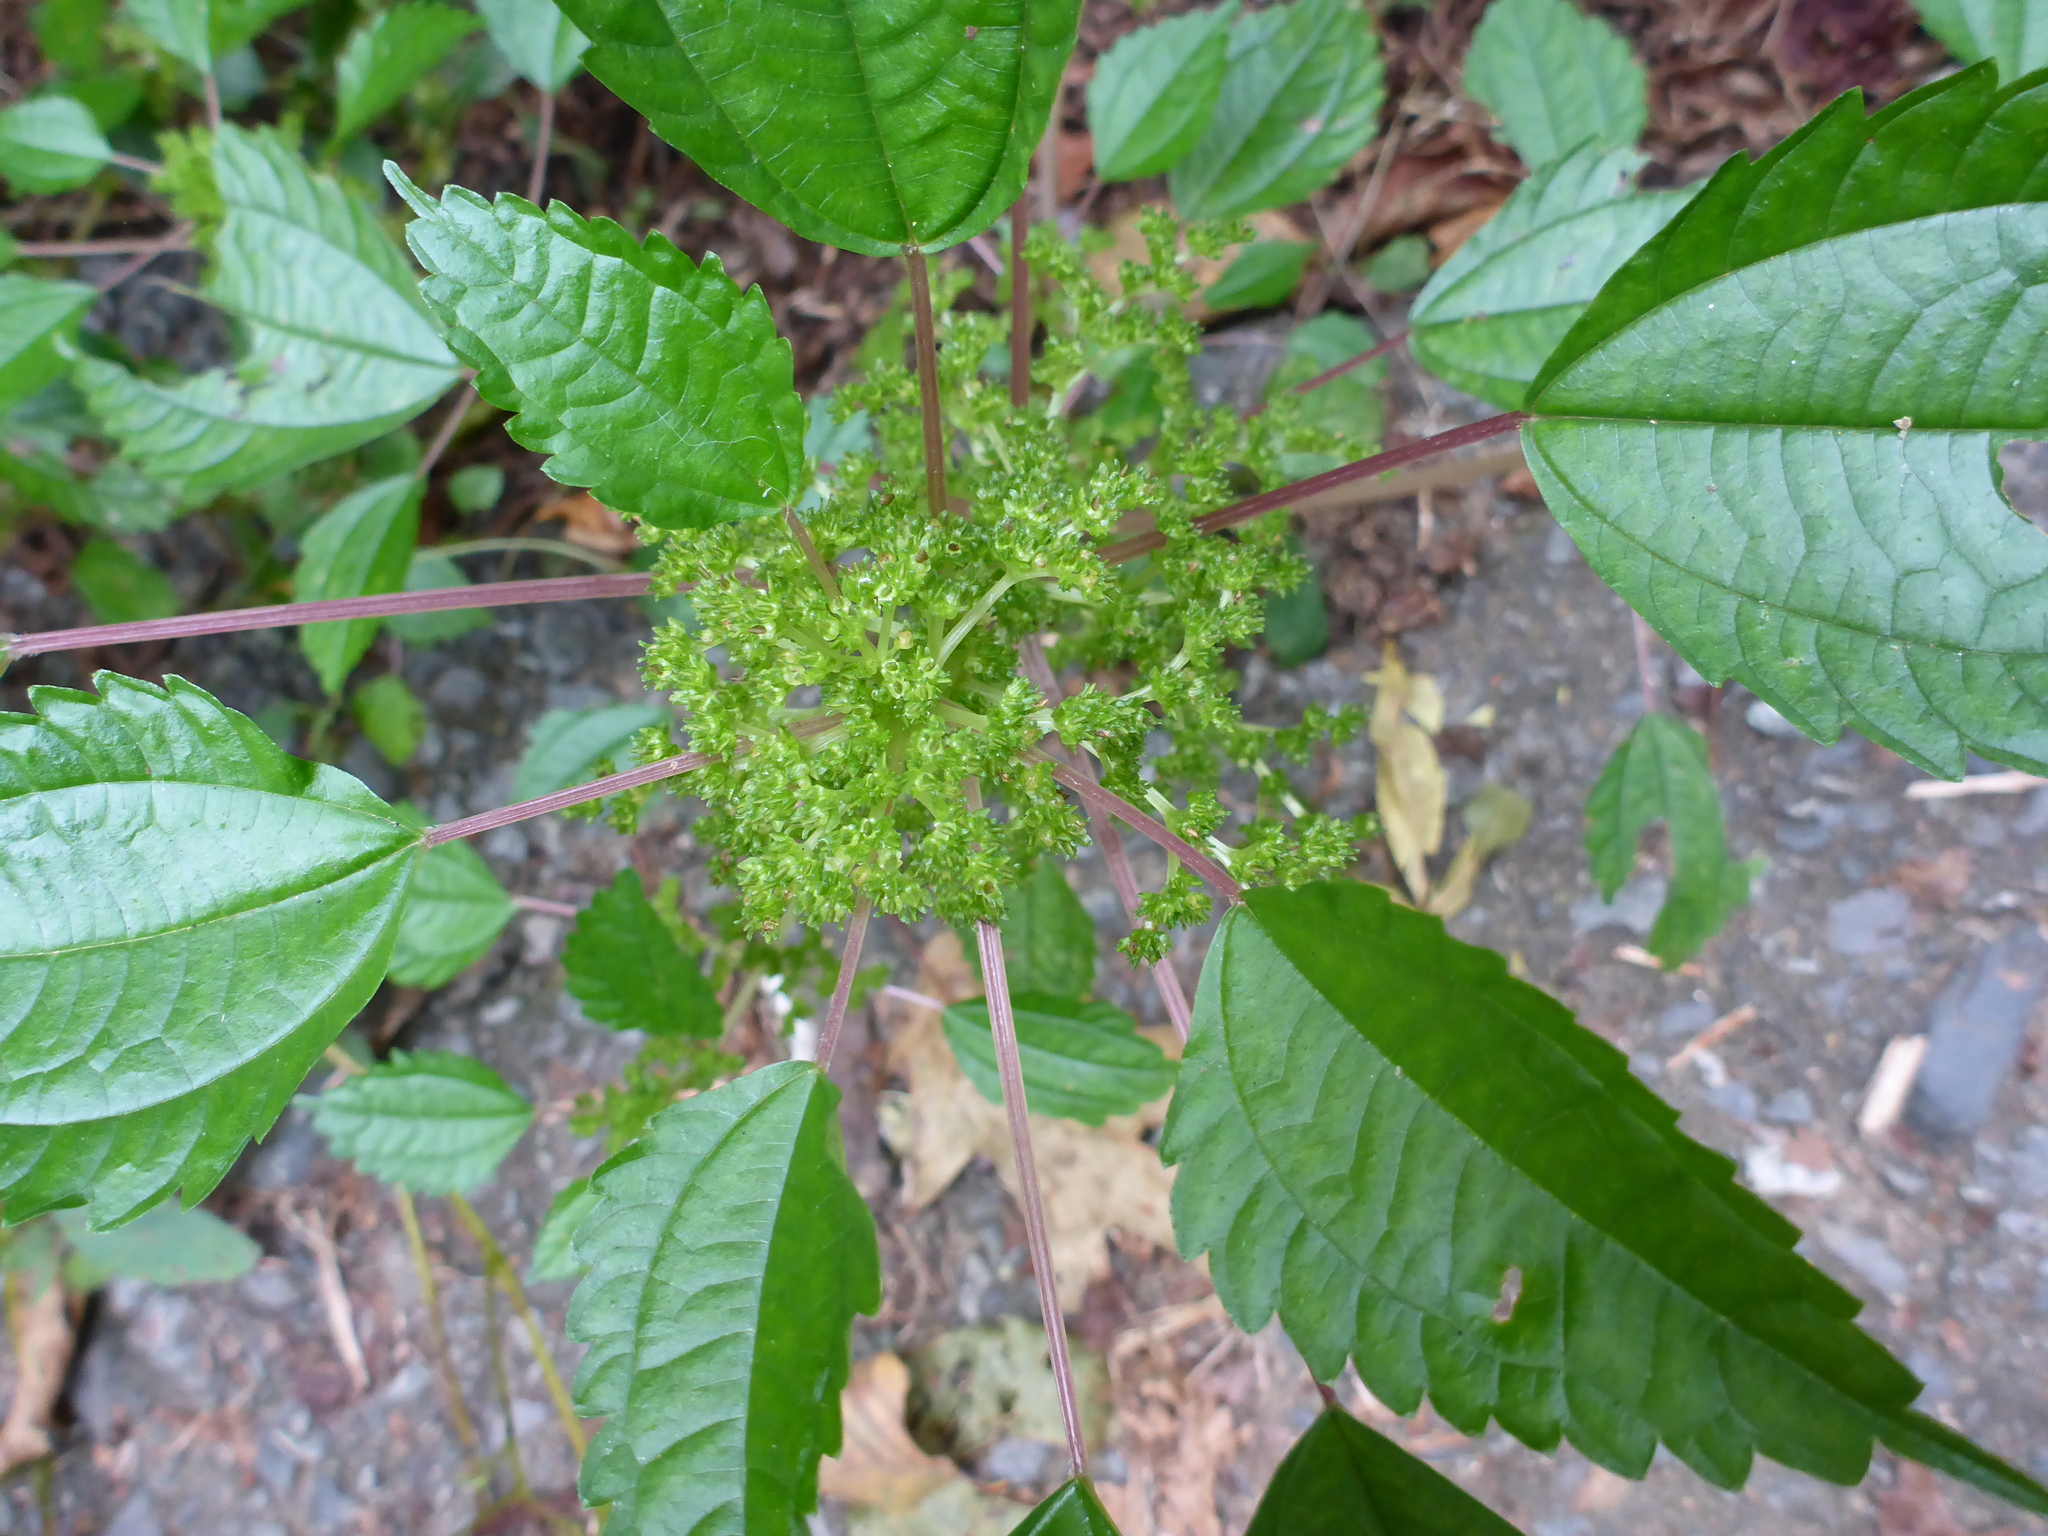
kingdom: Plantae
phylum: Tracheophyta
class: Magnoliopsida
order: Rosales
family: Urticaceae
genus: Pilea
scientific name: Pilea pumila
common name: Clearweed
